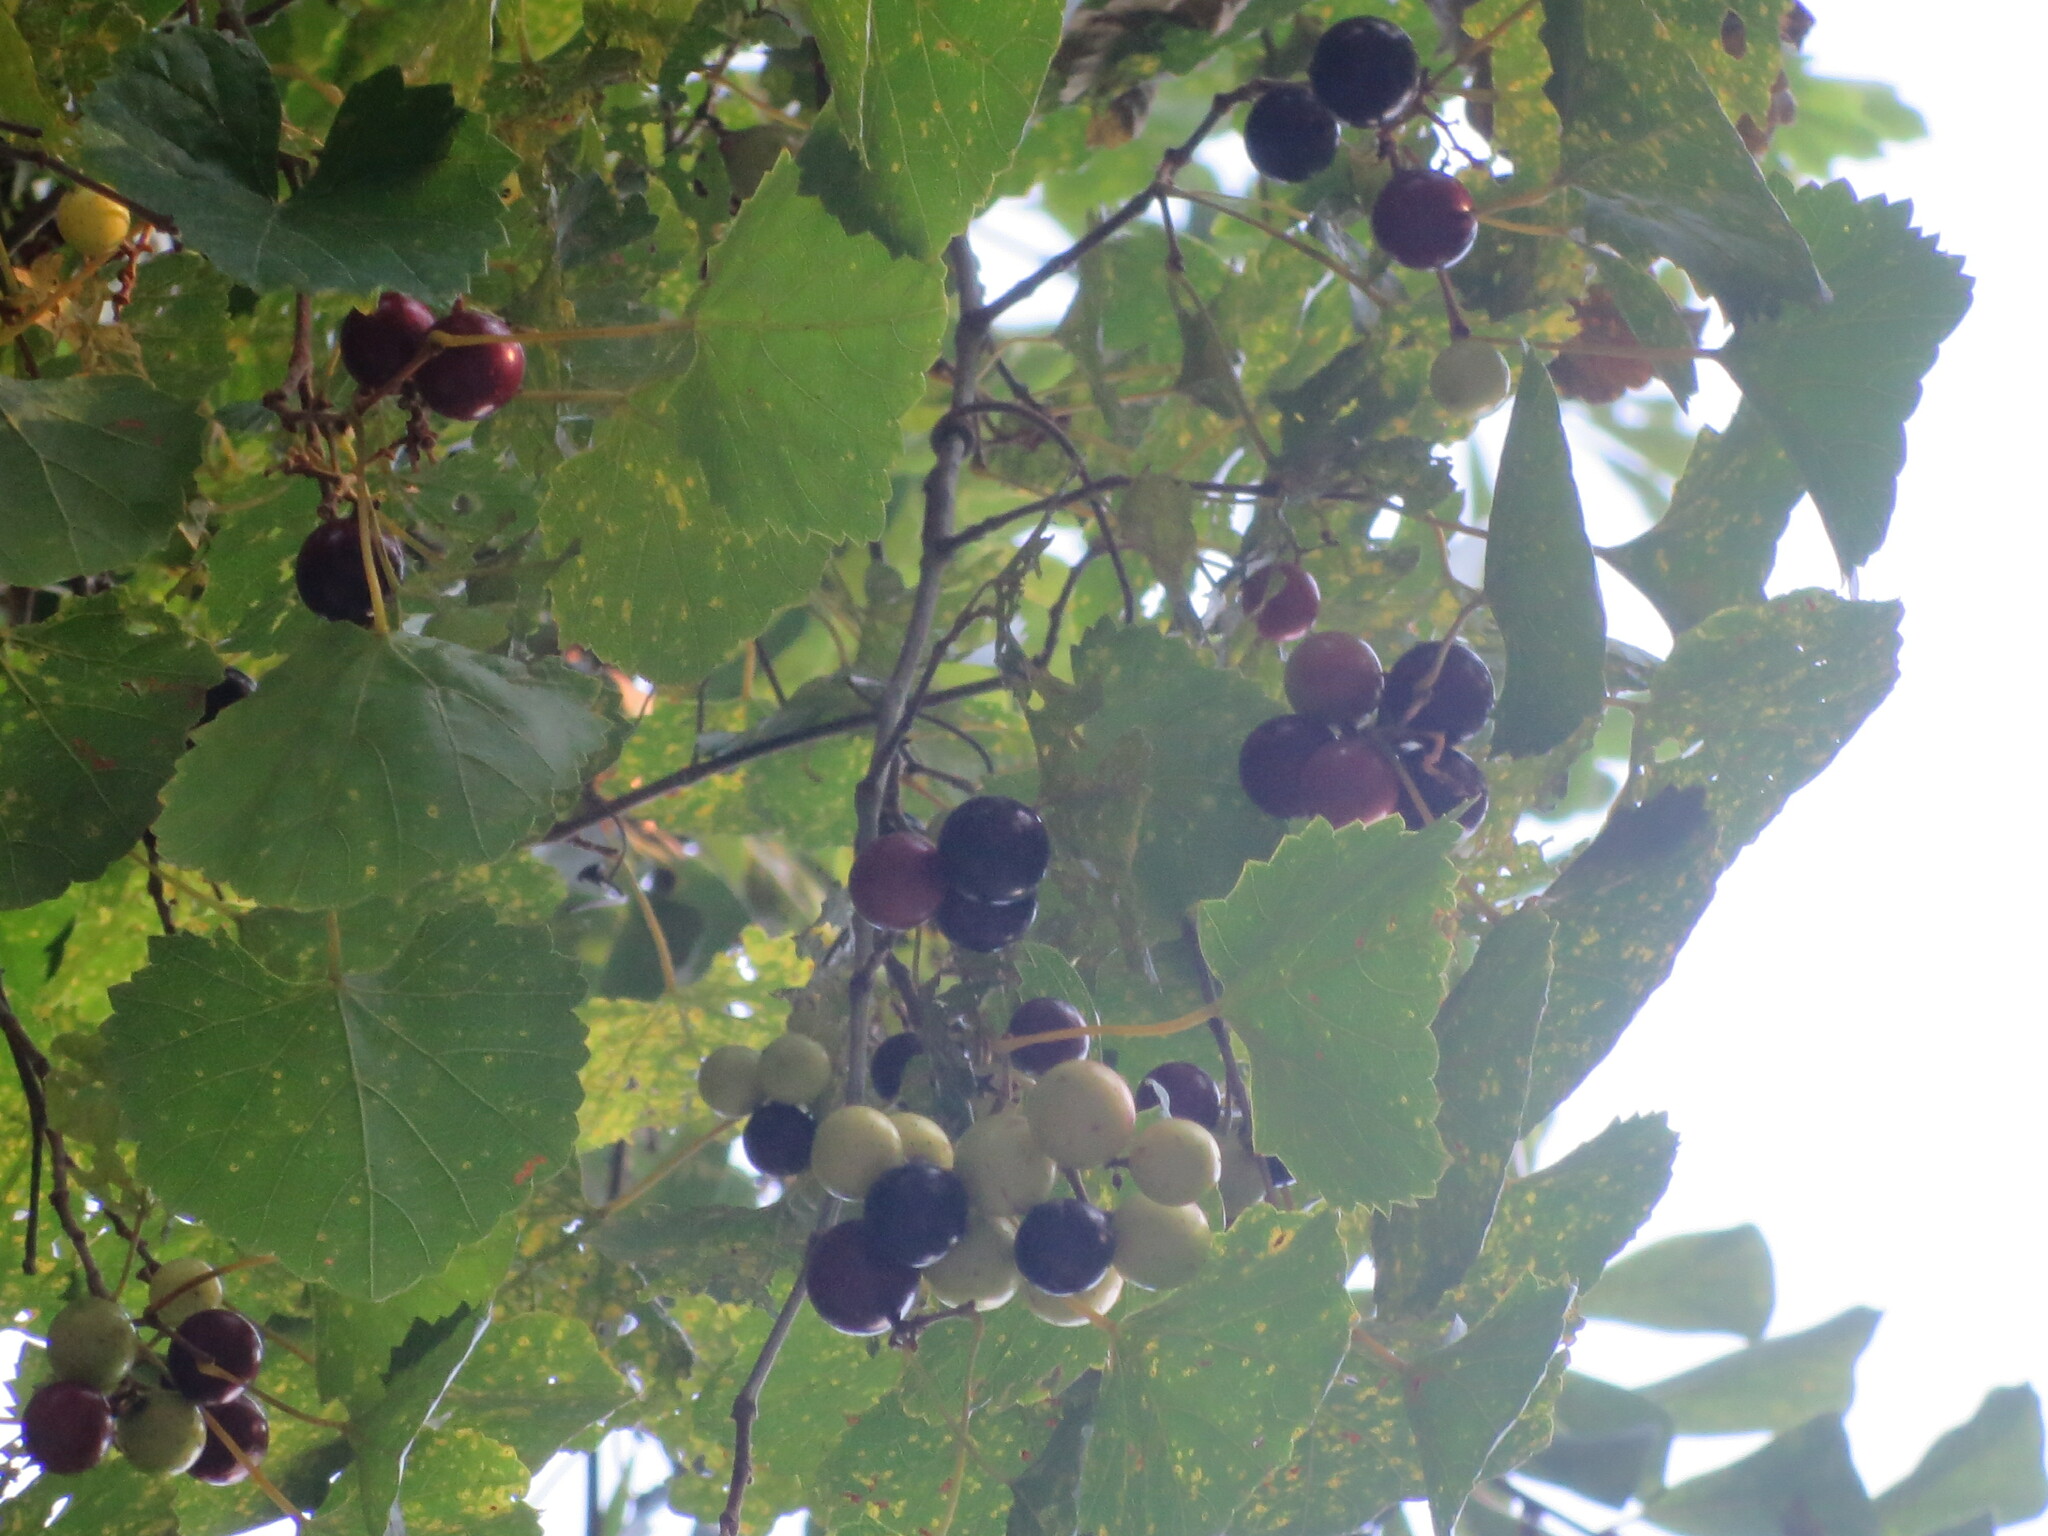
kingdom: Plantae
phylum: Tracheophyta
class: Magnoliopsida
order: Vitales
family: Vitaceae
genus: Vitis
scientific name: Vitis rotundifolia
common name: Muscadine grape
